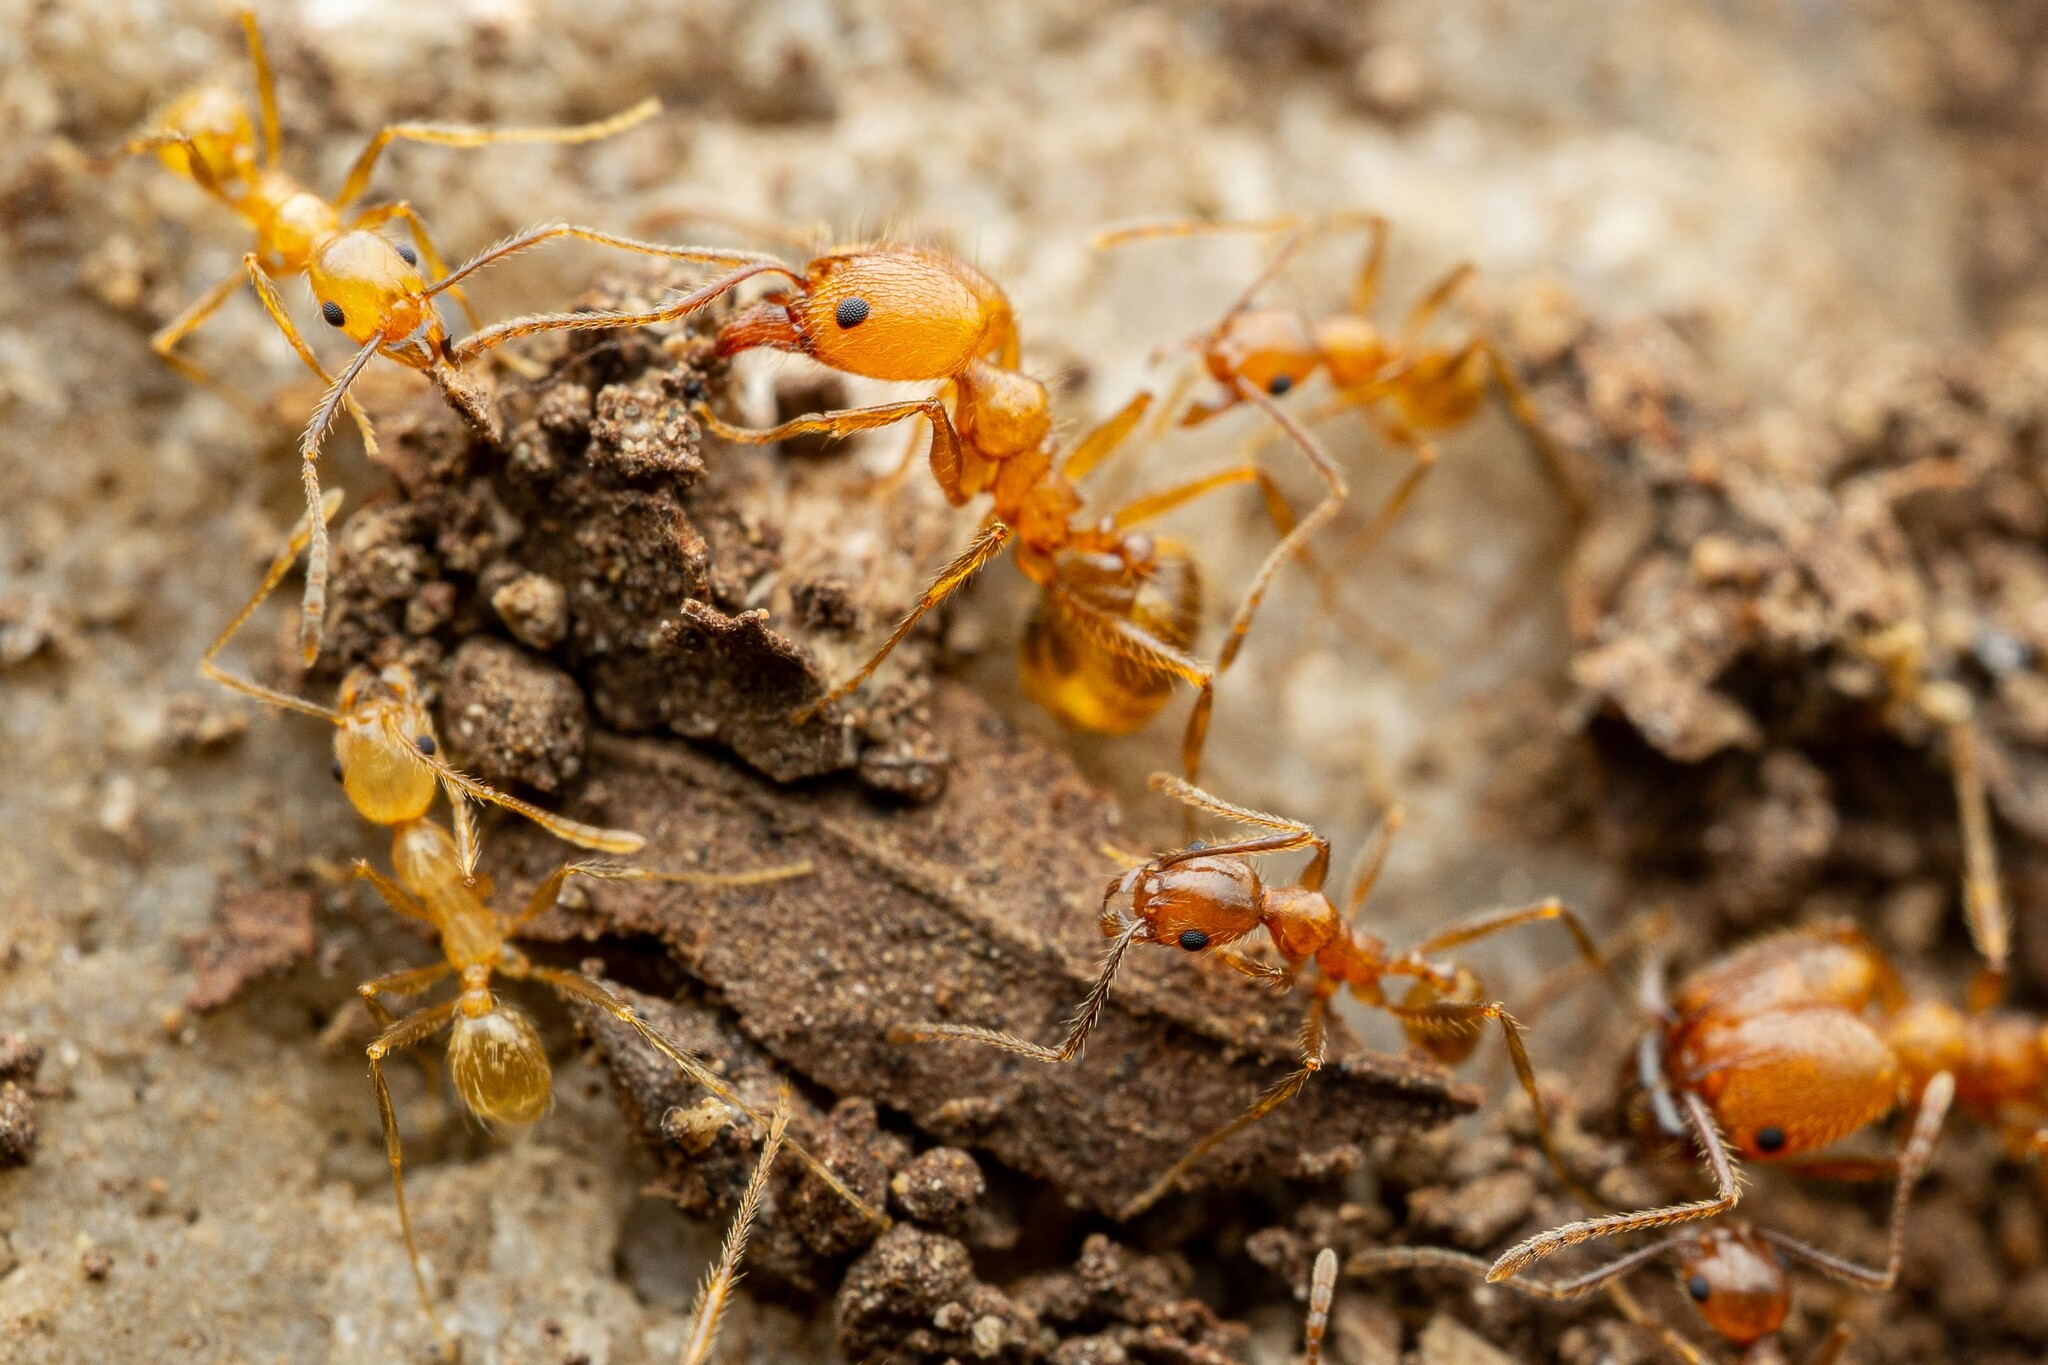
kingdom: Animalia
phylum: Arthropoda
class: Insecta
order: Hymenoptera
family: Formicidae
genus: Pheidole
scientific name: Pheidole hyatti
